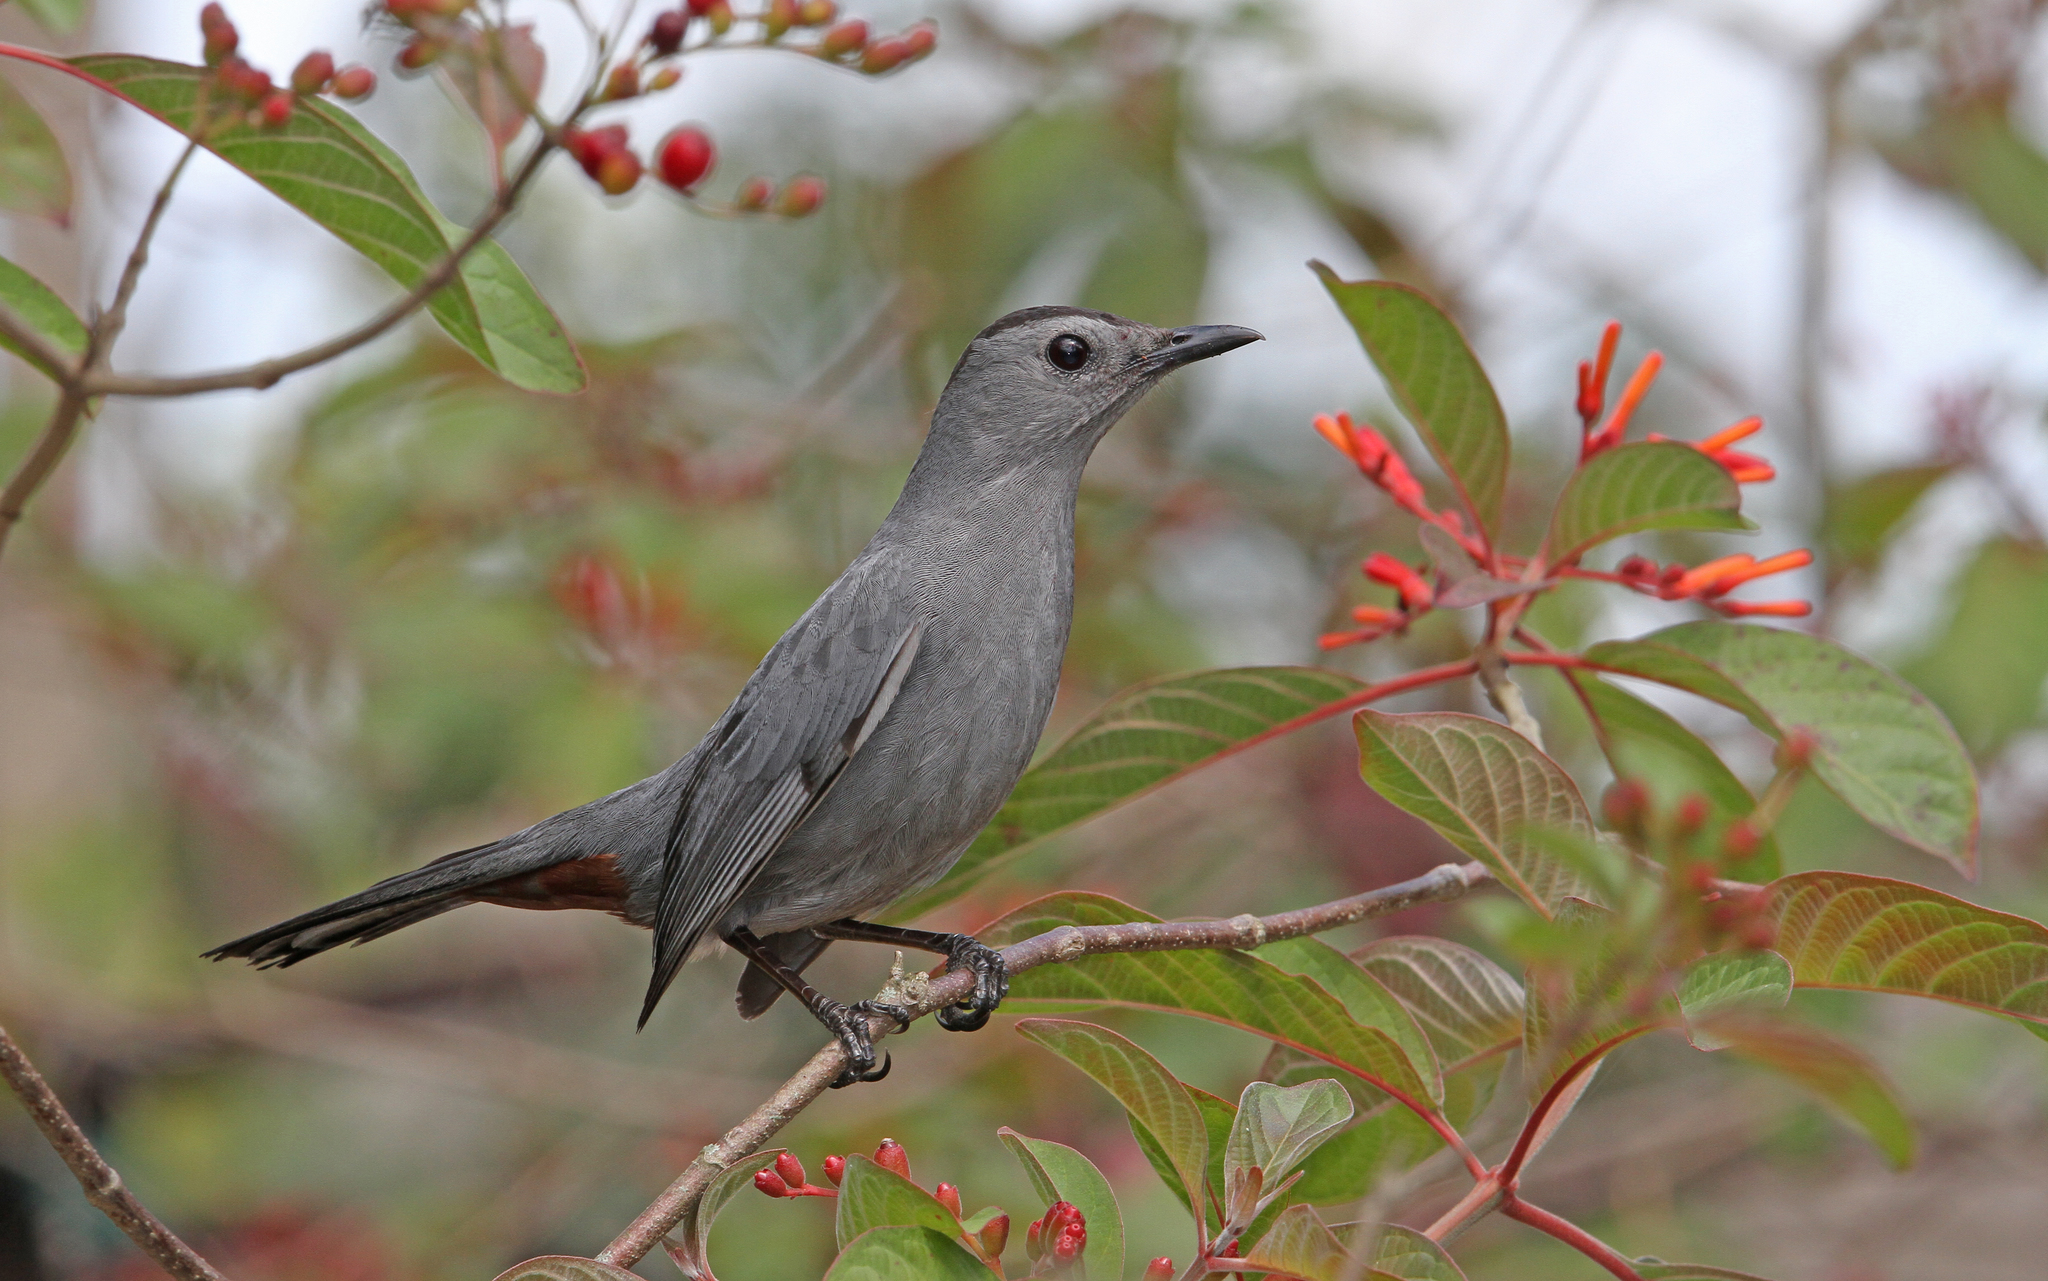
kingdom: Animalia
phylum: Chordata
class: Aves
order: Passeriformes
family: Mimidae
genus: Dumetella
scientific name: Dumetella carolinensis
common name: Gray catbird
